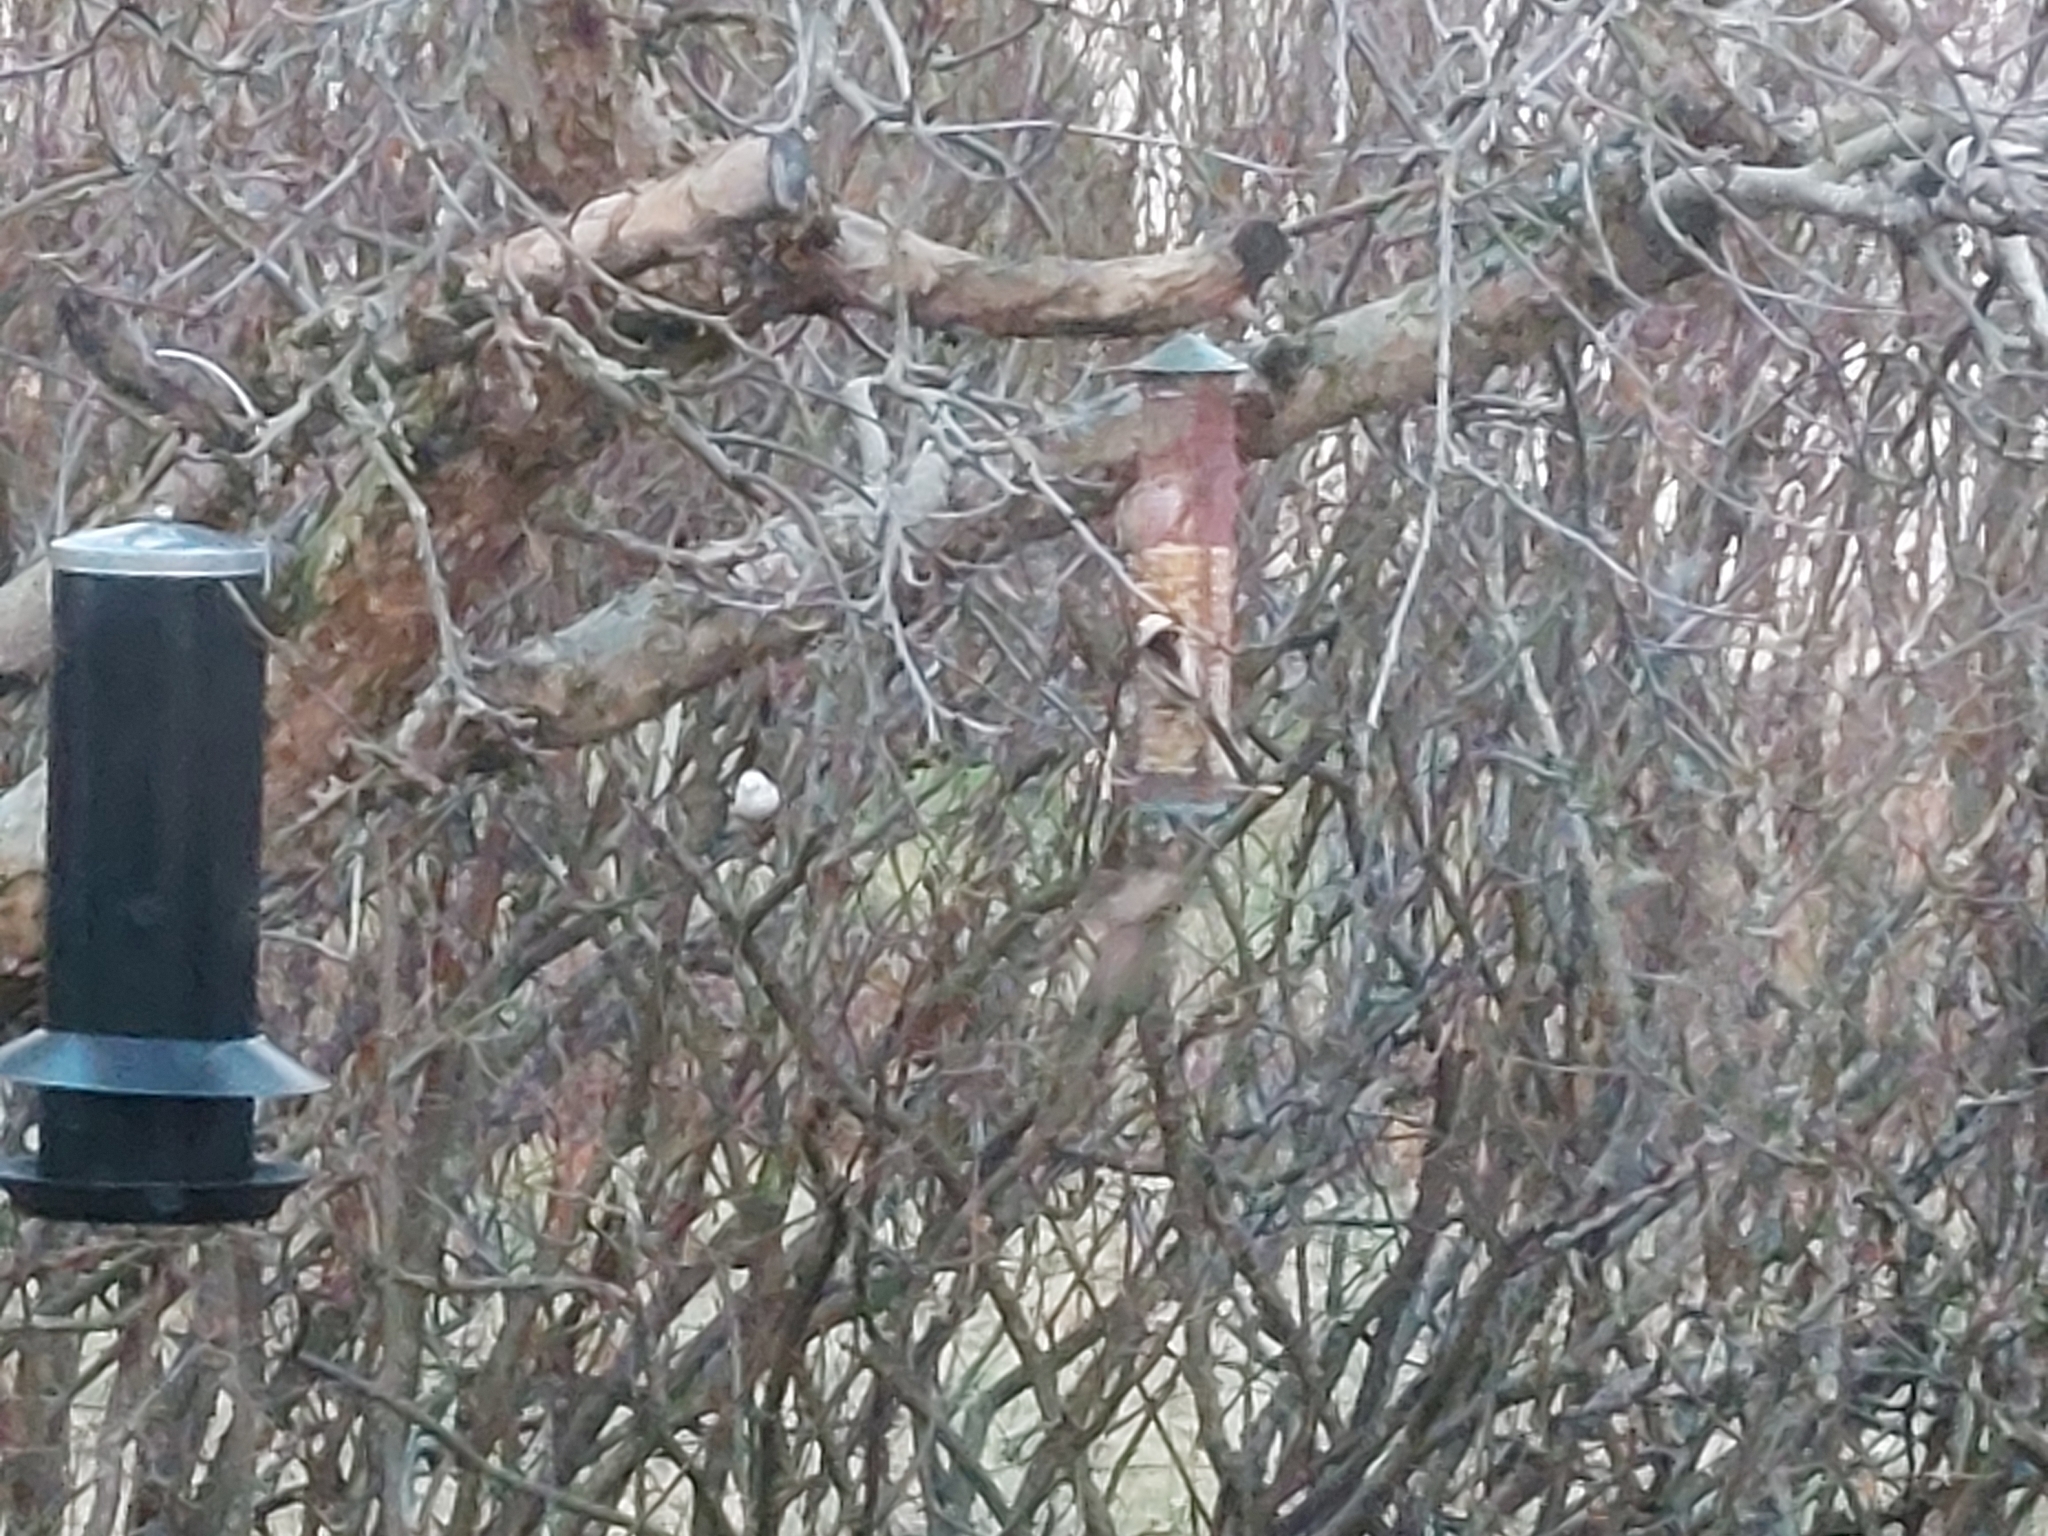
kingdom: Animalia
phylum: Chordata
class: Aves
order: Passeriformes
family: Aegithalidae
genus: Aegithalos
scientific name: Aegithalos caudatus
